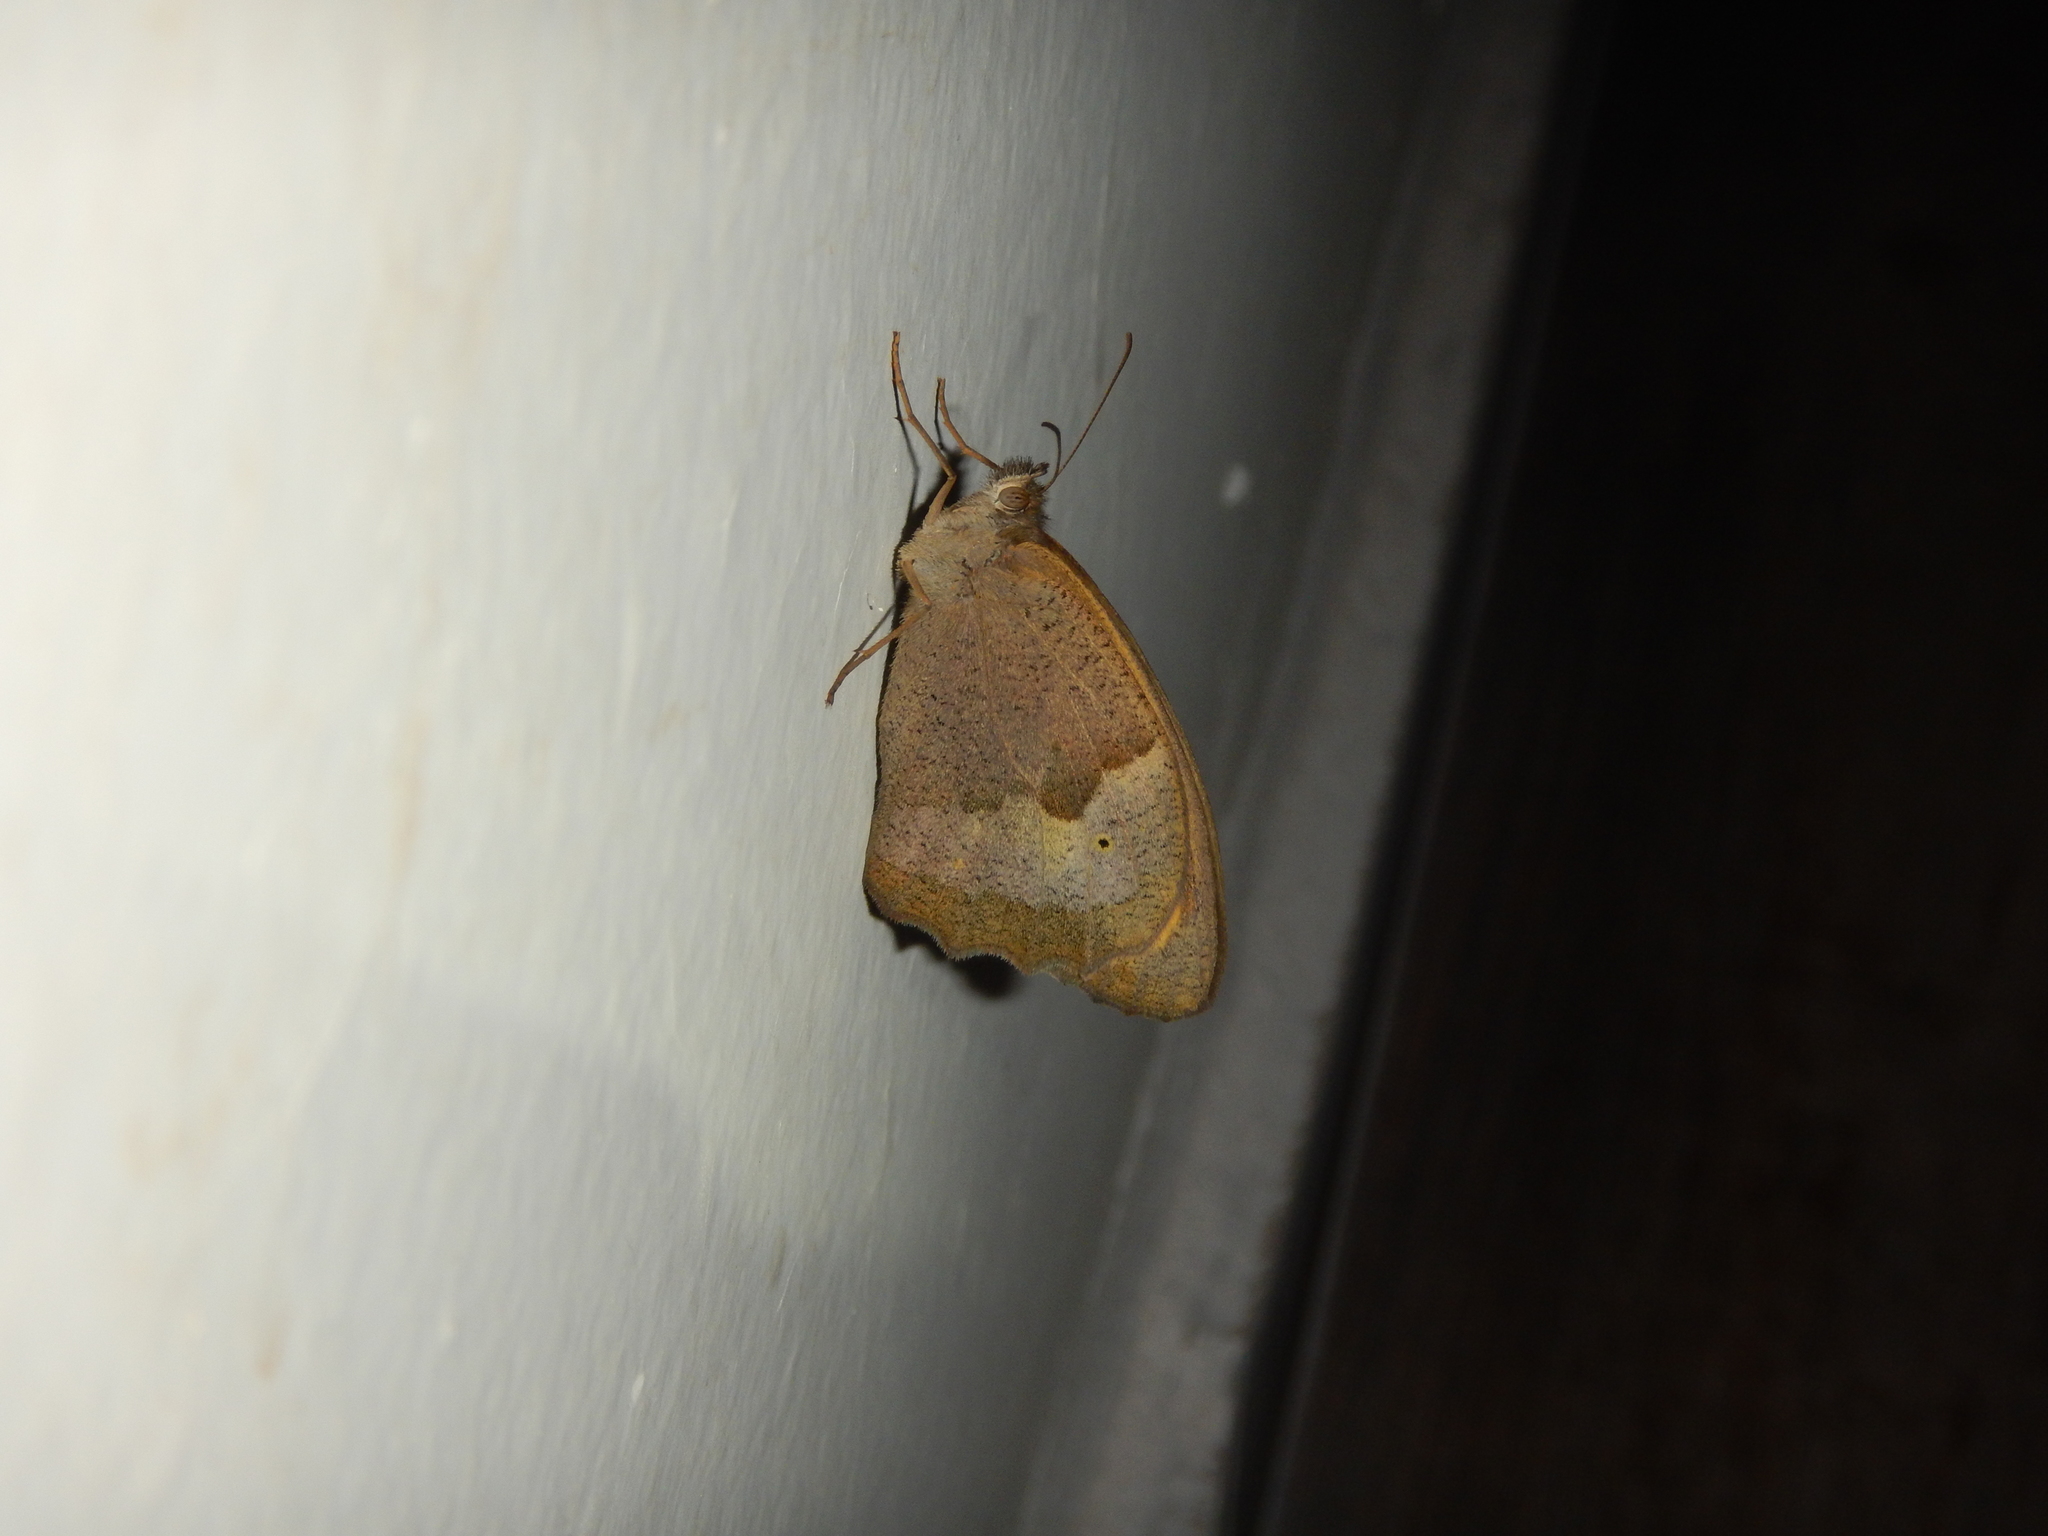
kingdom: Animalia
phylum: Arthropoda
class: Insecta
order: Lepidoptera
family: Nymphalidae
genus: Maniola
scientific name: Maniola jurtina
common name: Meadow brown
